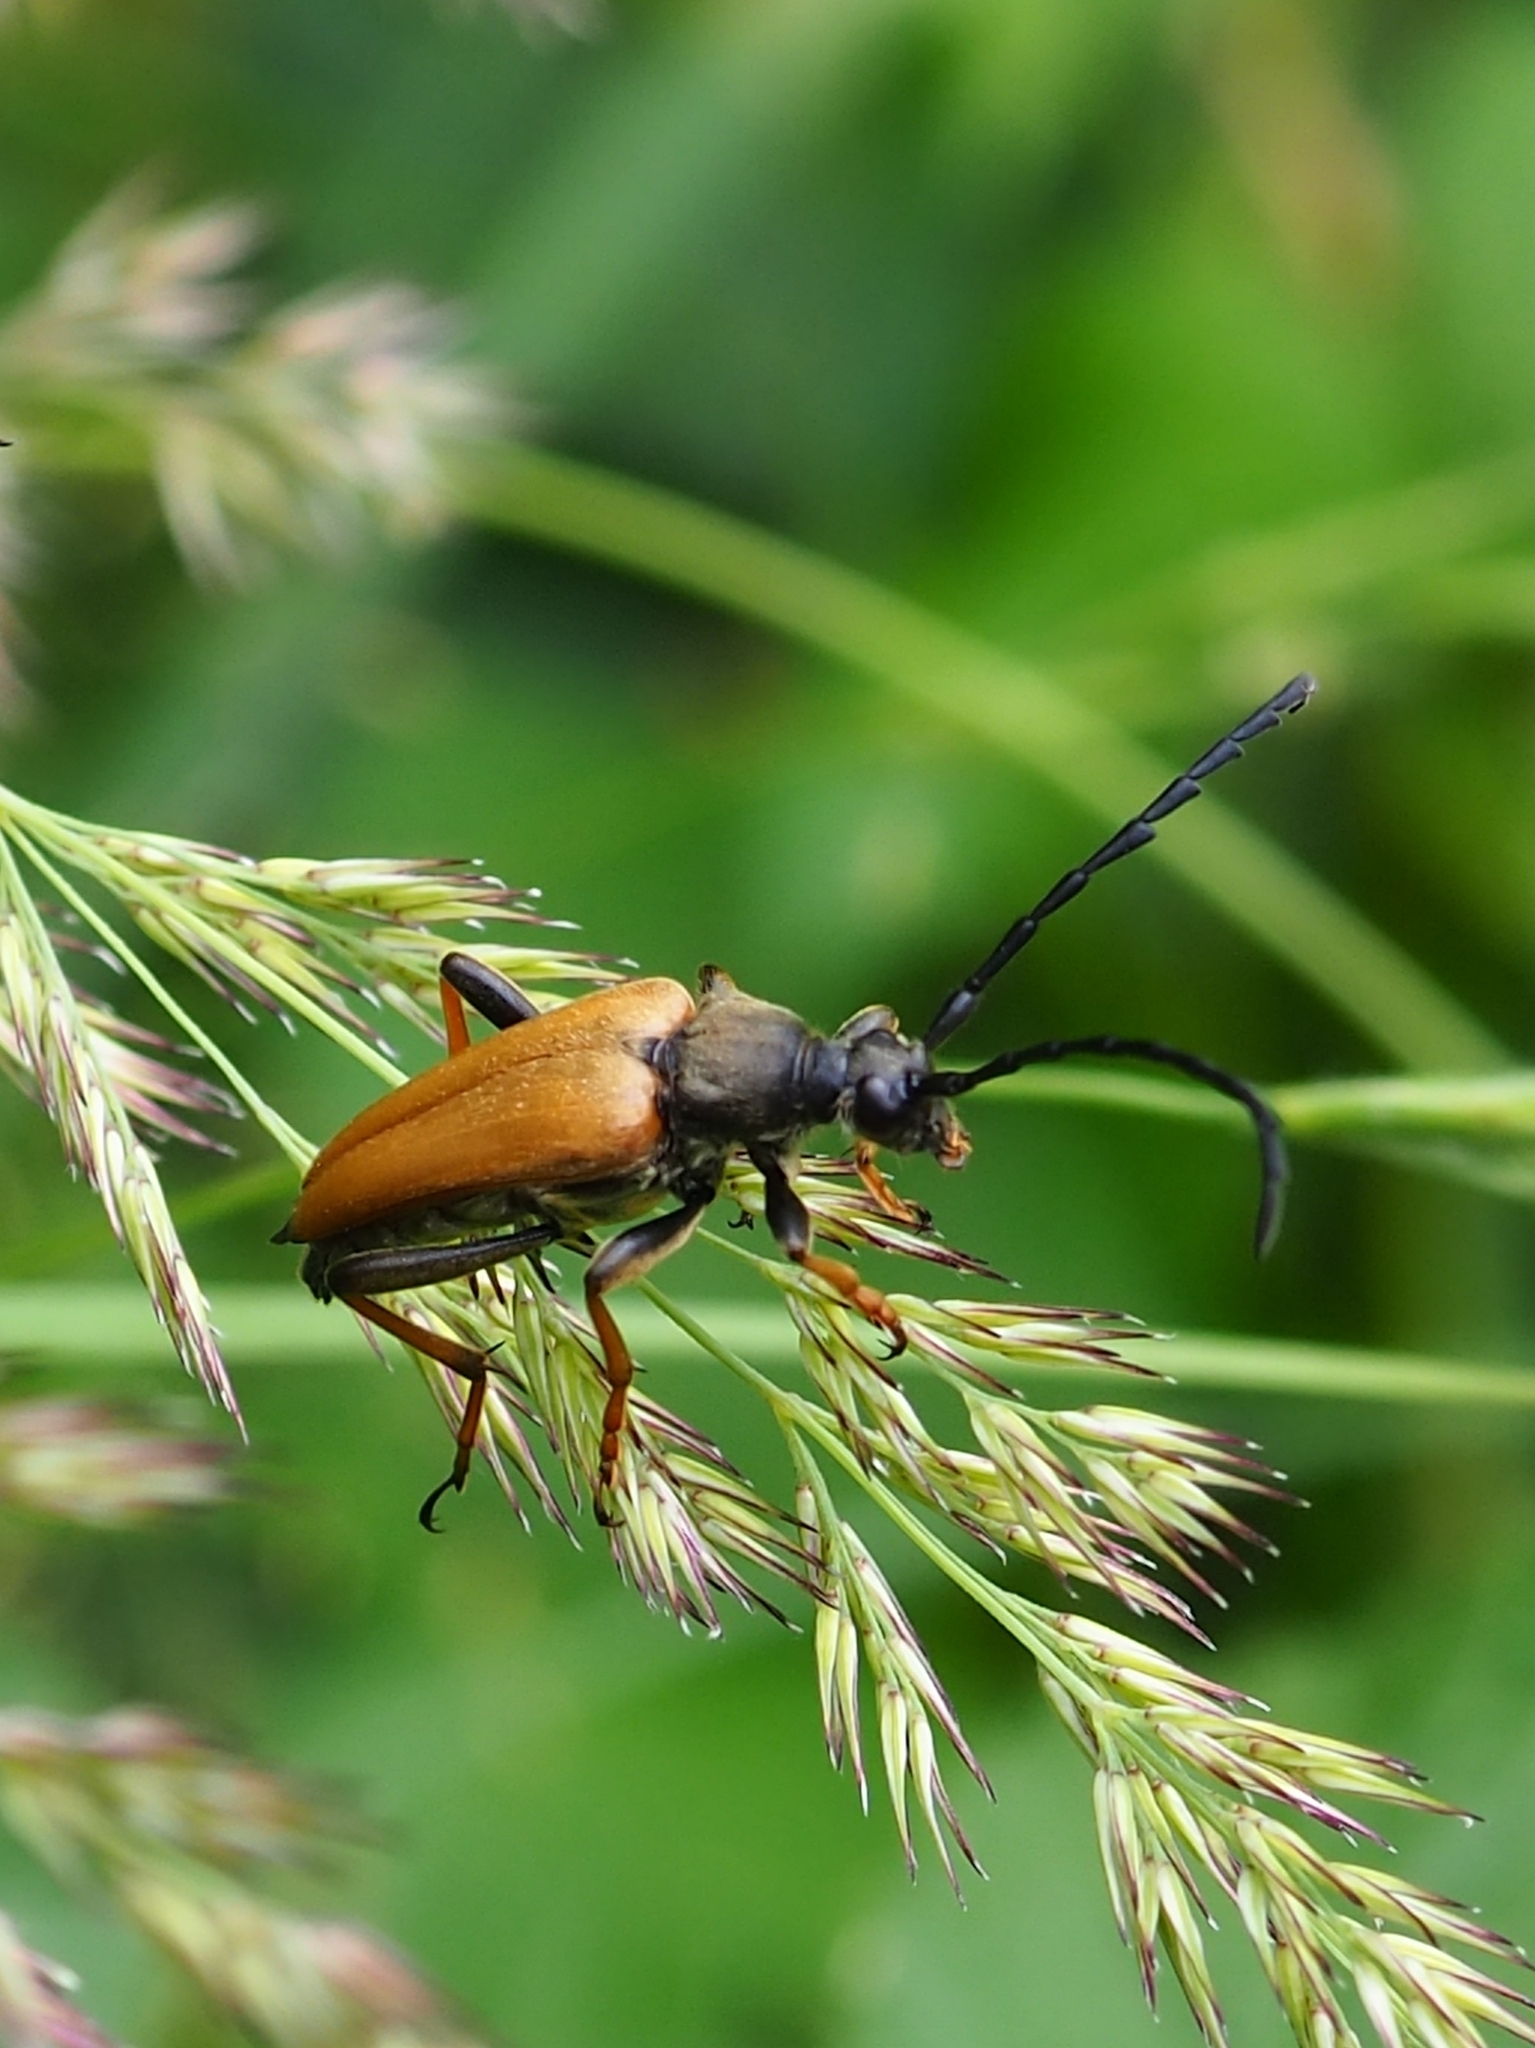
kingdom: Animalia
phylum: Arthropoda
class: Insecta
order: Coleoptera
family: Cerambycidae
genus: Stictoleptura
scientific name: Stictoleptura rubra
